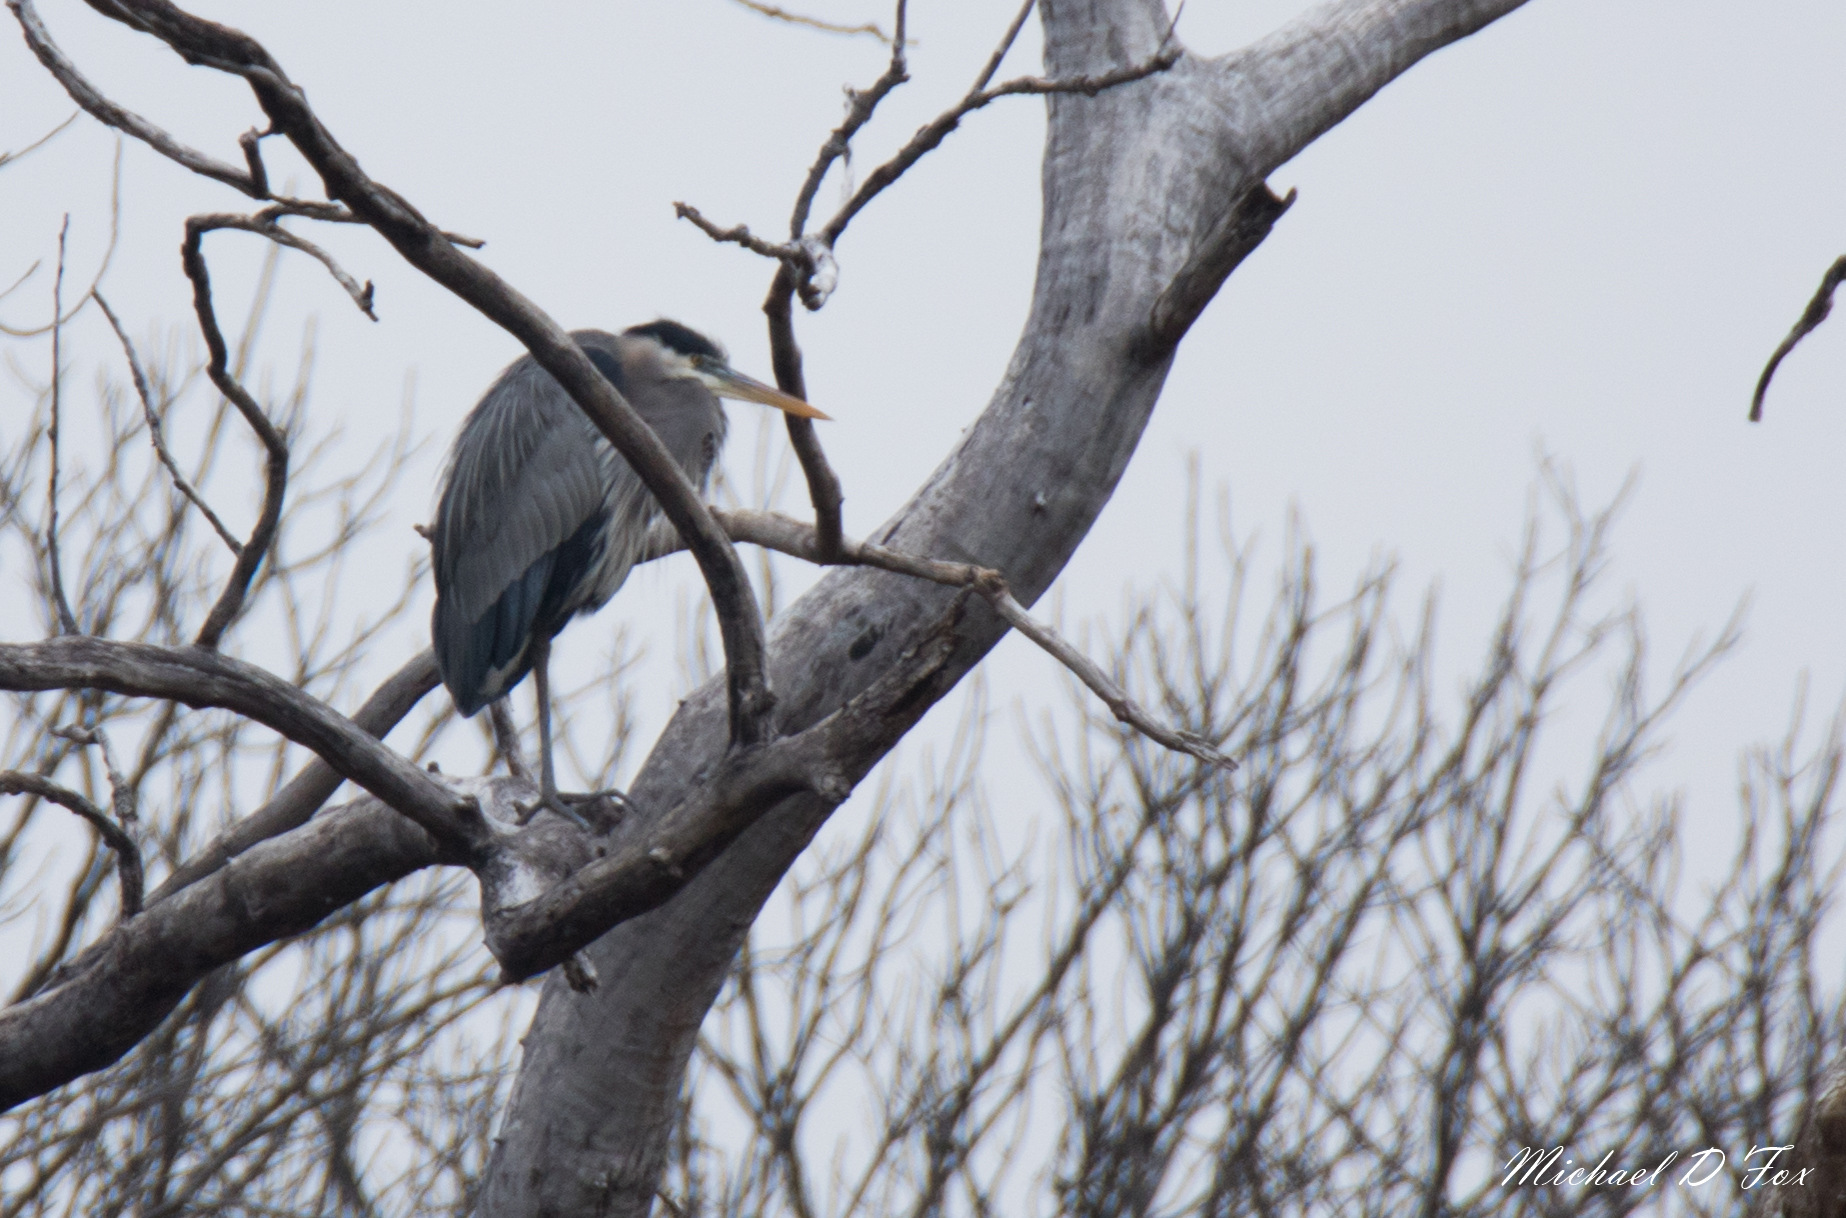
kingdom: Animalia
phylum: Chordata
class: Aves
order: Pelecaniformes
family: Ardeidae
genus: Ardea
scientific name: Ardea herodias
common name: Great blue heron
